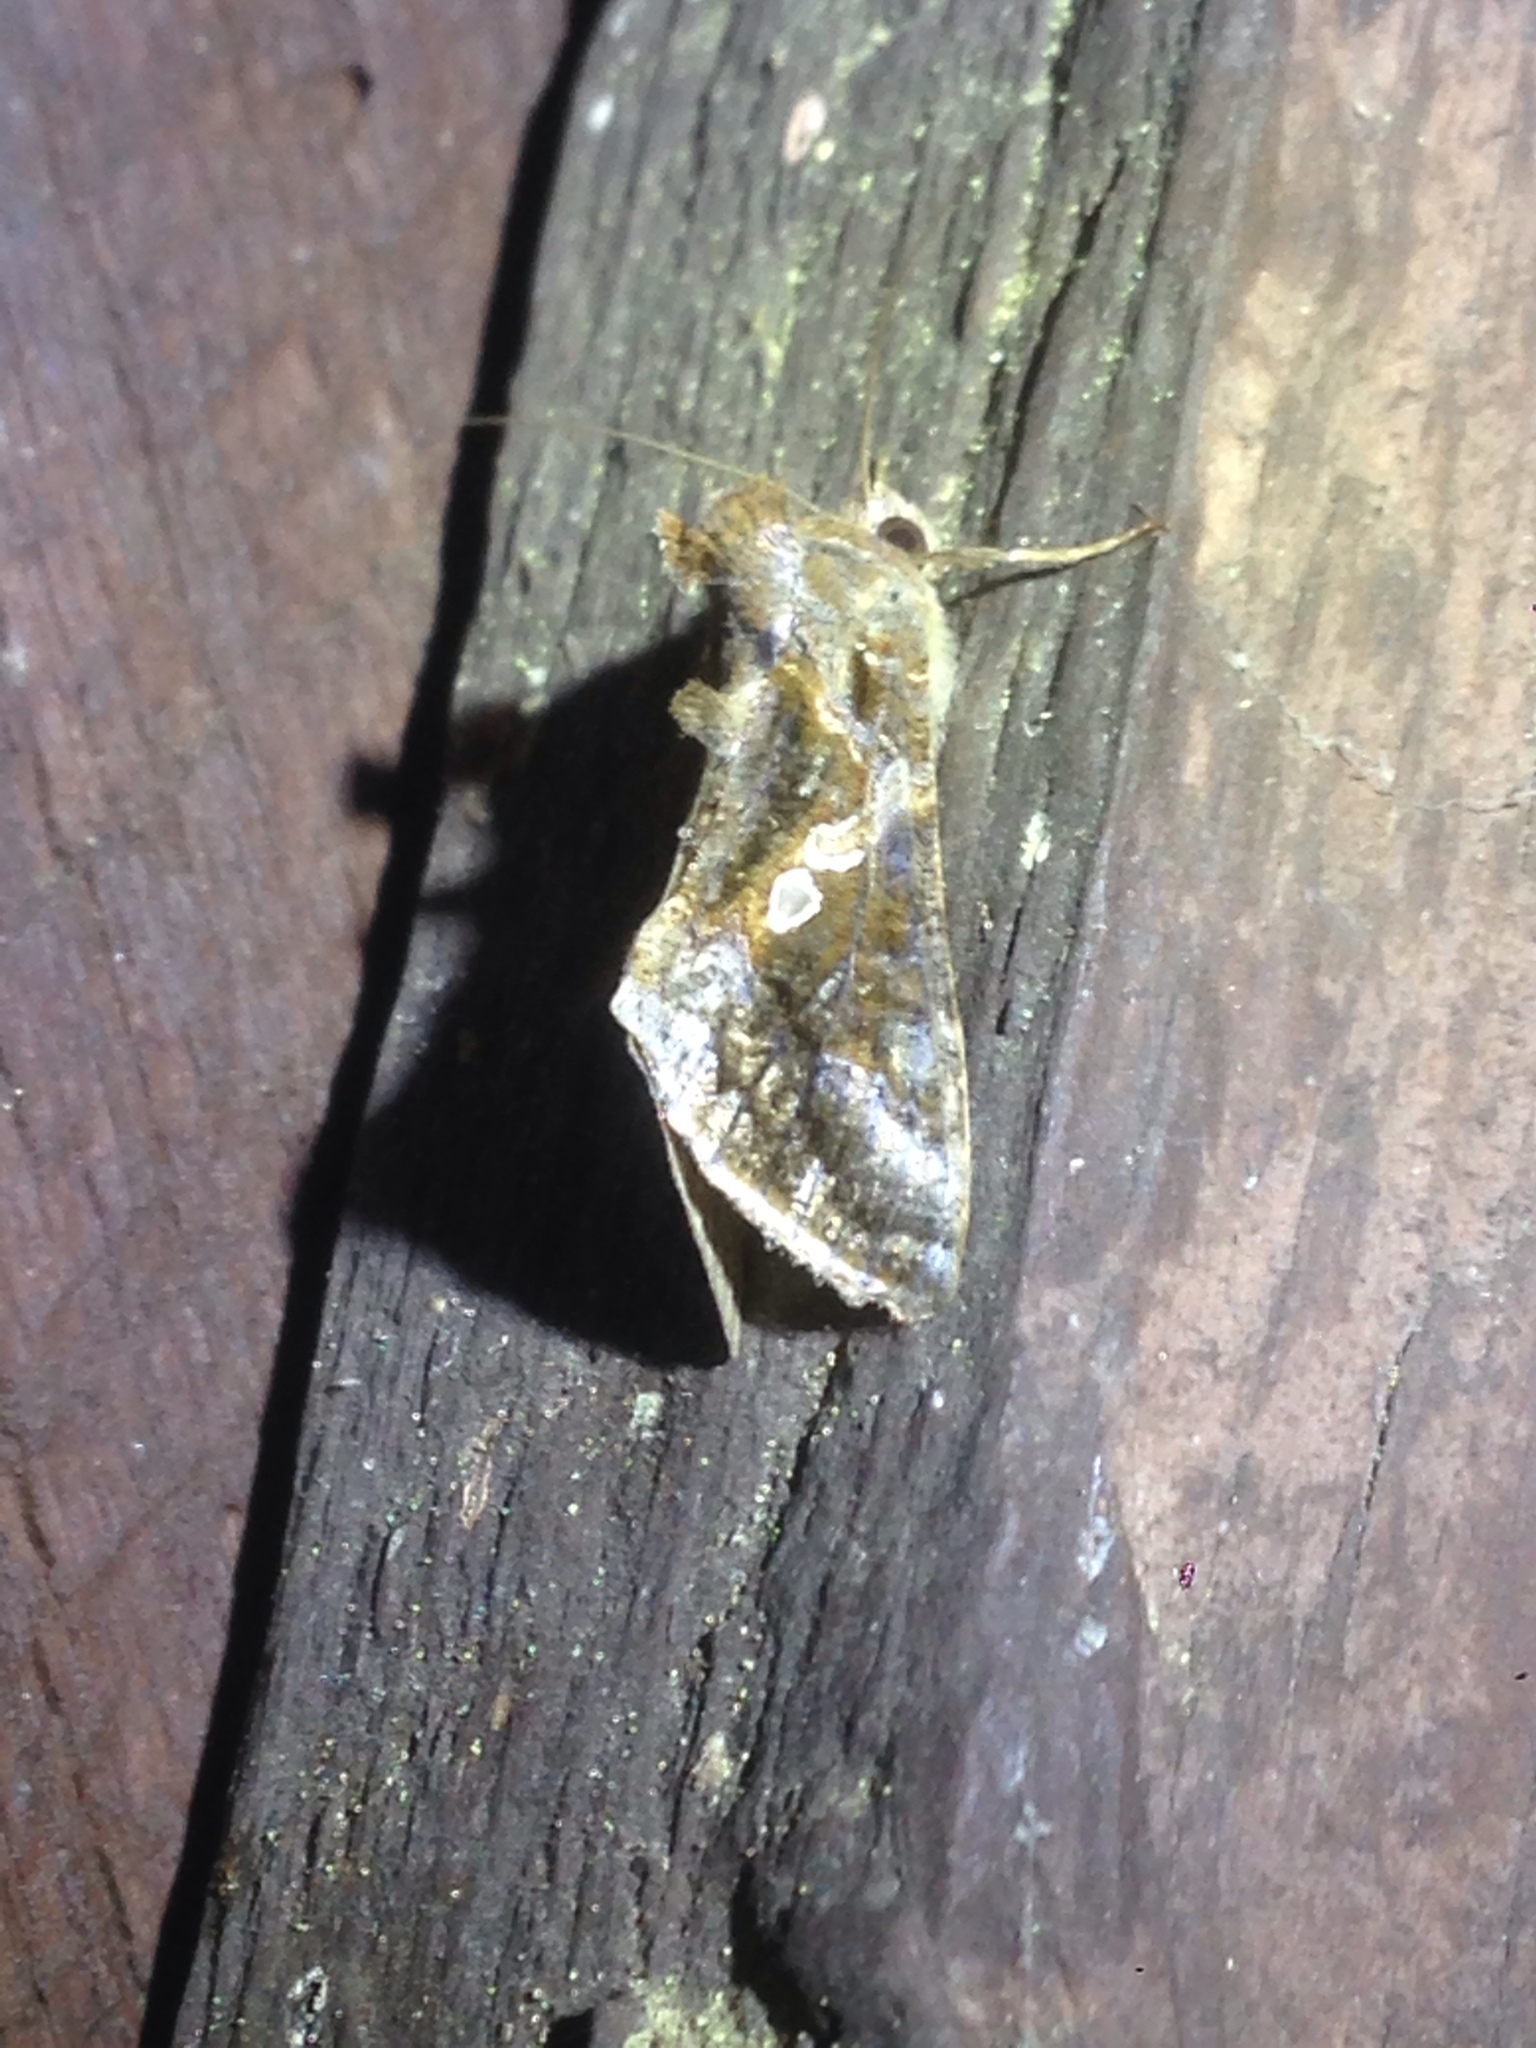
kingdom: Animalia
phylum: Arthropoda
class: Insecta
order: Lepidoptera
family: Noctuidae
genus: Chrysodeixis
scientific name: Chrysodeixis includens
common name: Cutworm moth
